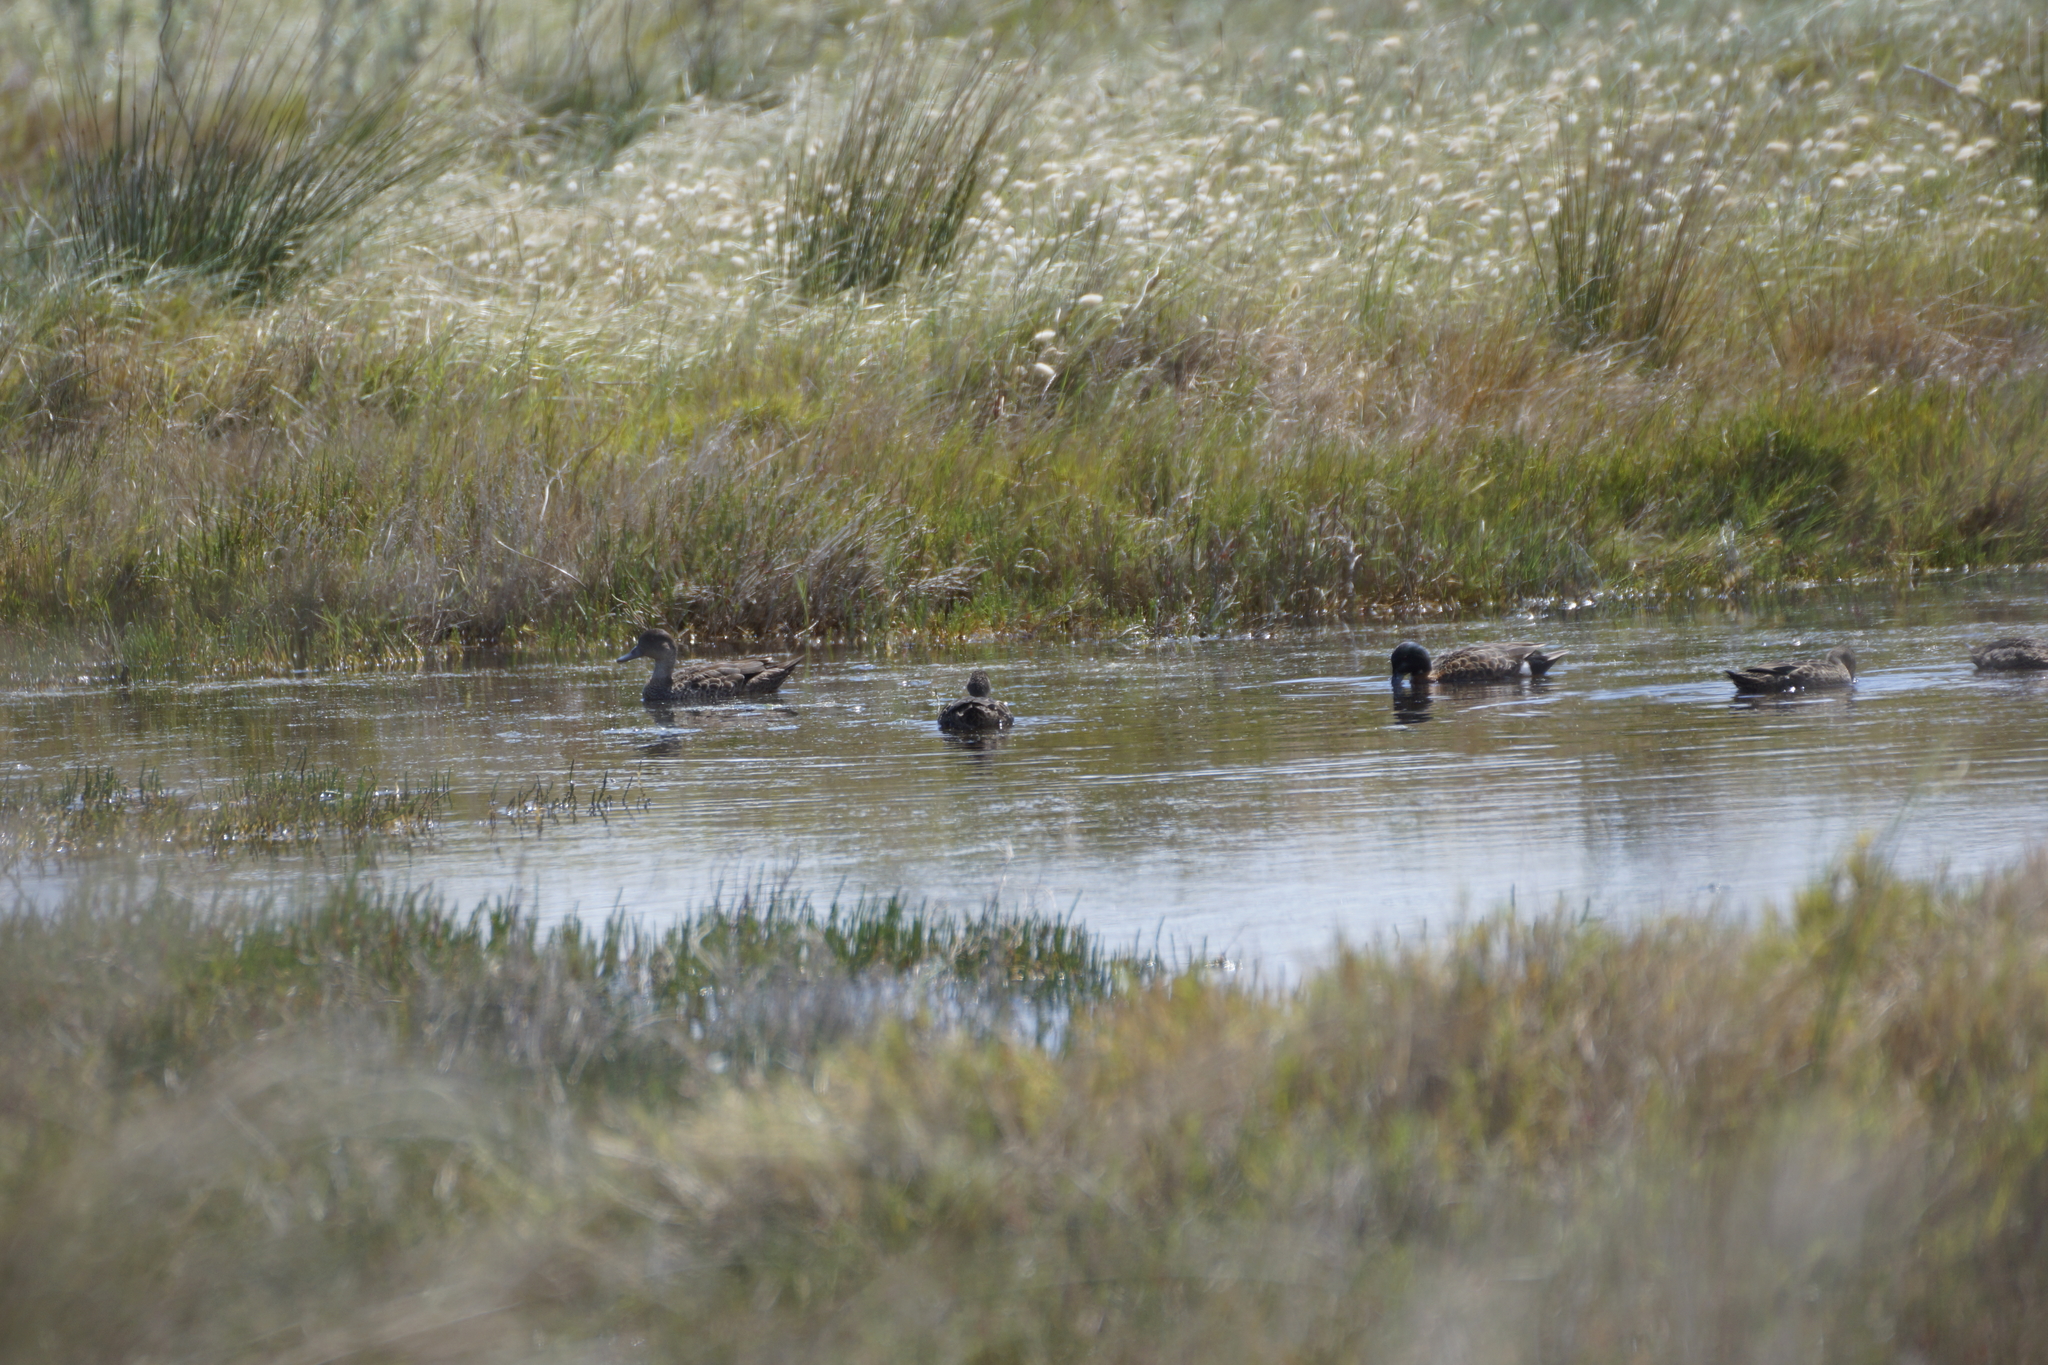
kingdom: Animalia
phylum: Chordata
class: Aves
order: Anseriformes
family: Anatidae
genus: Anas
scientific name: Anas castanea
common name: Chestnut teal
